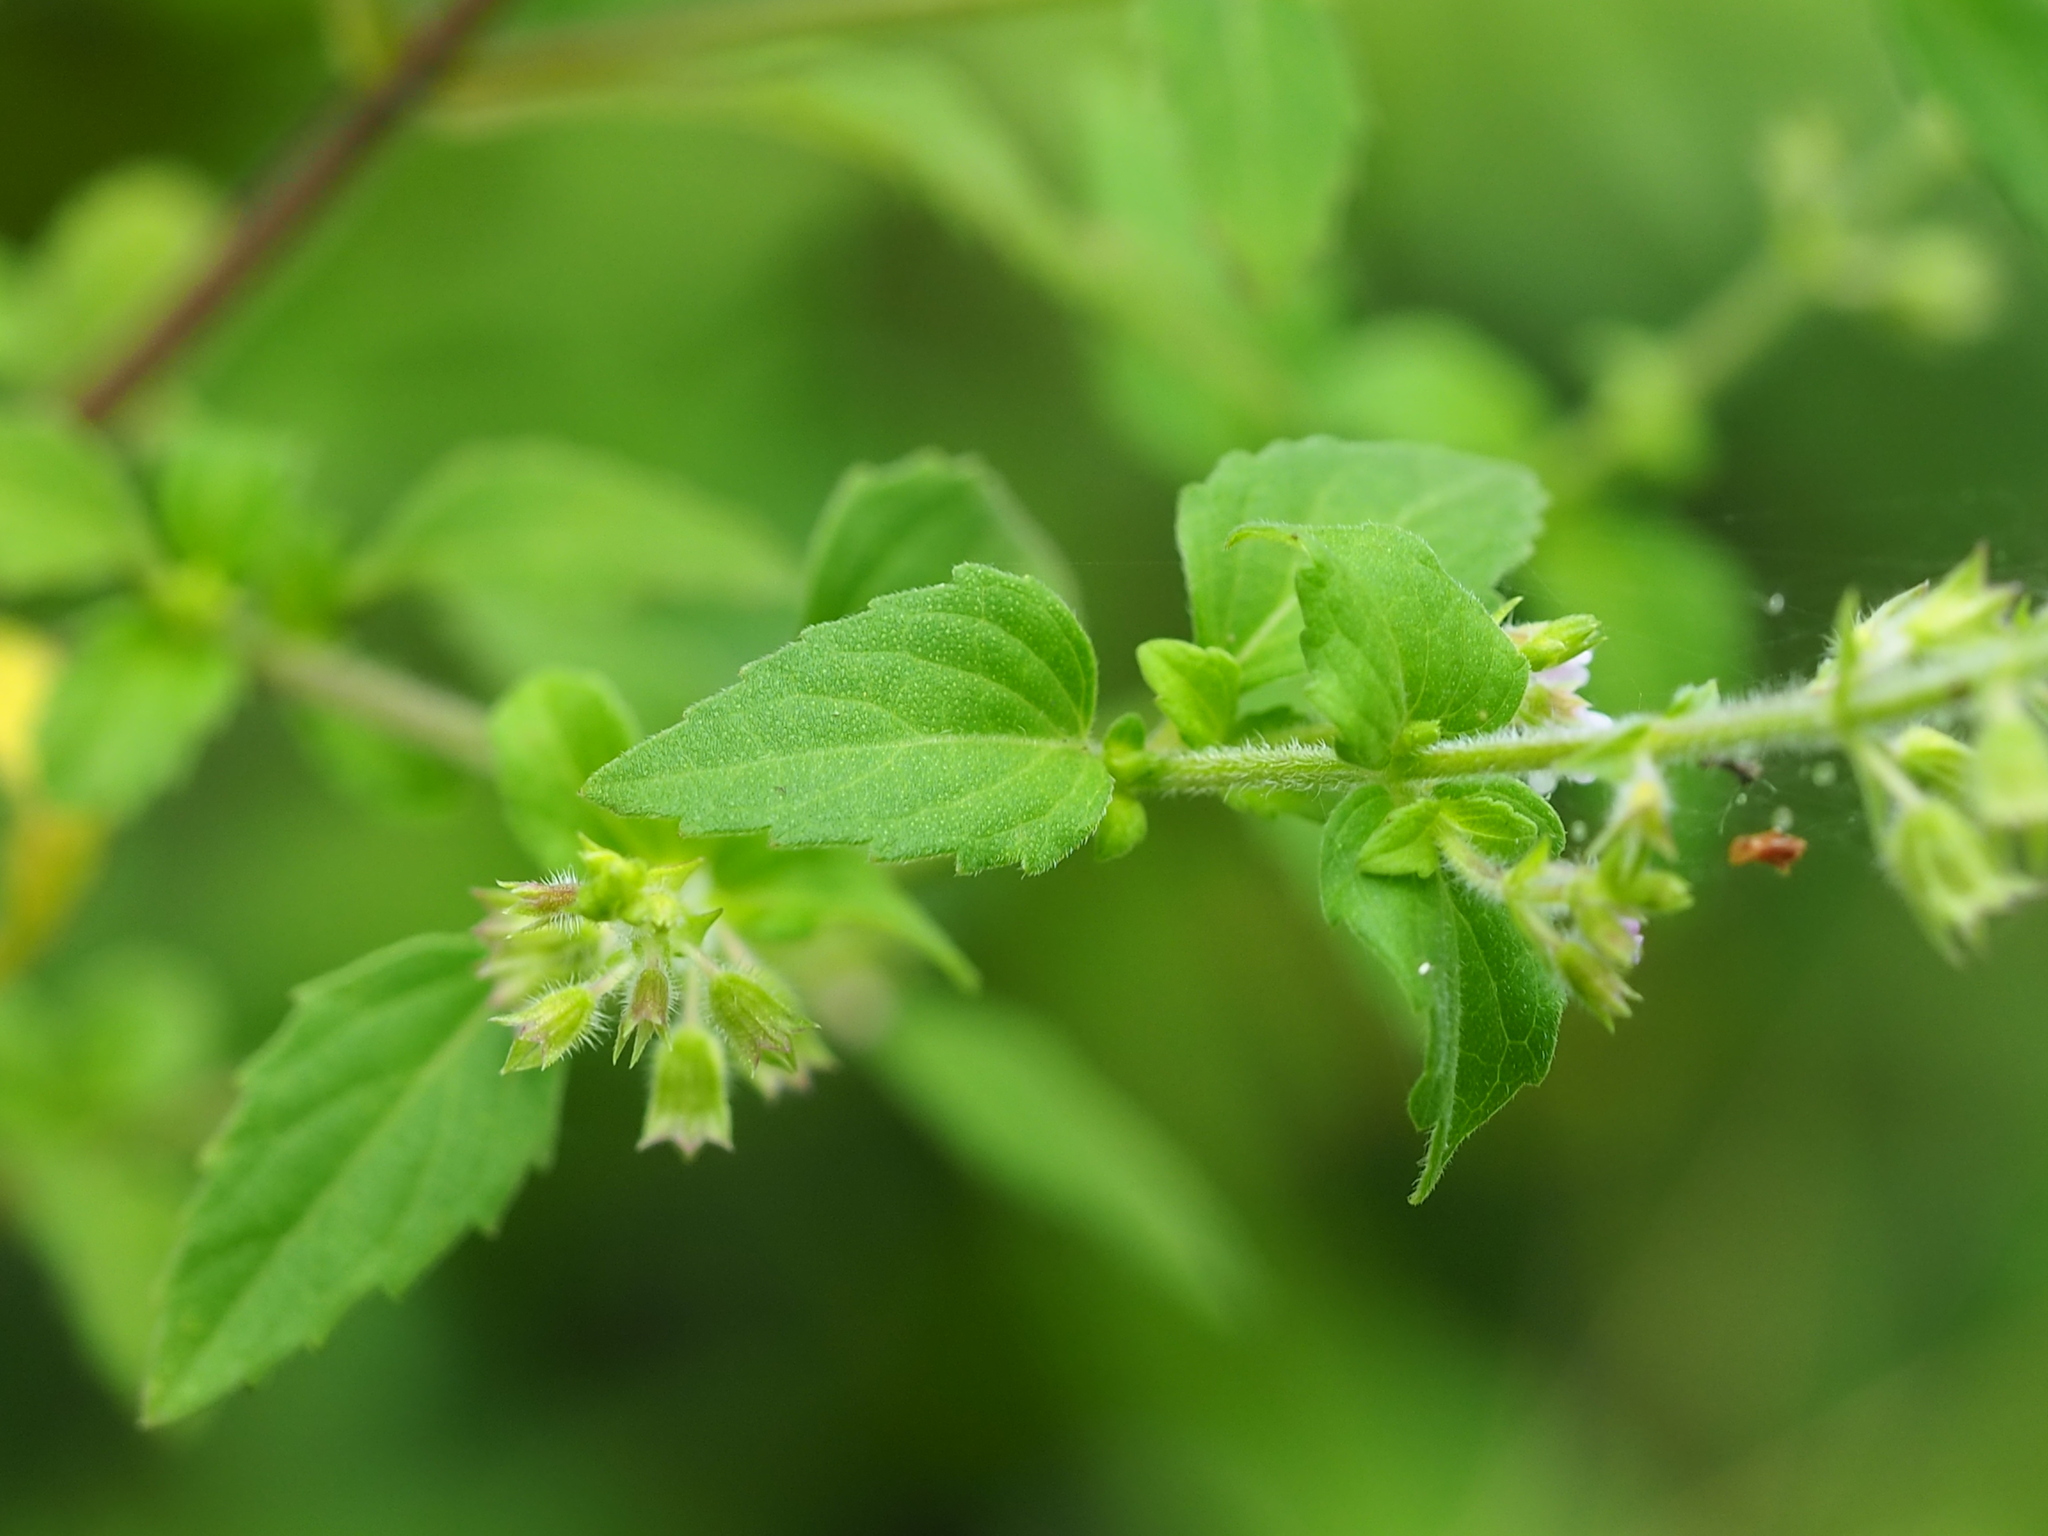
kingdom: Plantae
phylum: Tracheophyta
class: Magnoliopsida
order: Lamiales
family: Lamiaceae
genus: Mosla
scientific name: Mosla scabra
